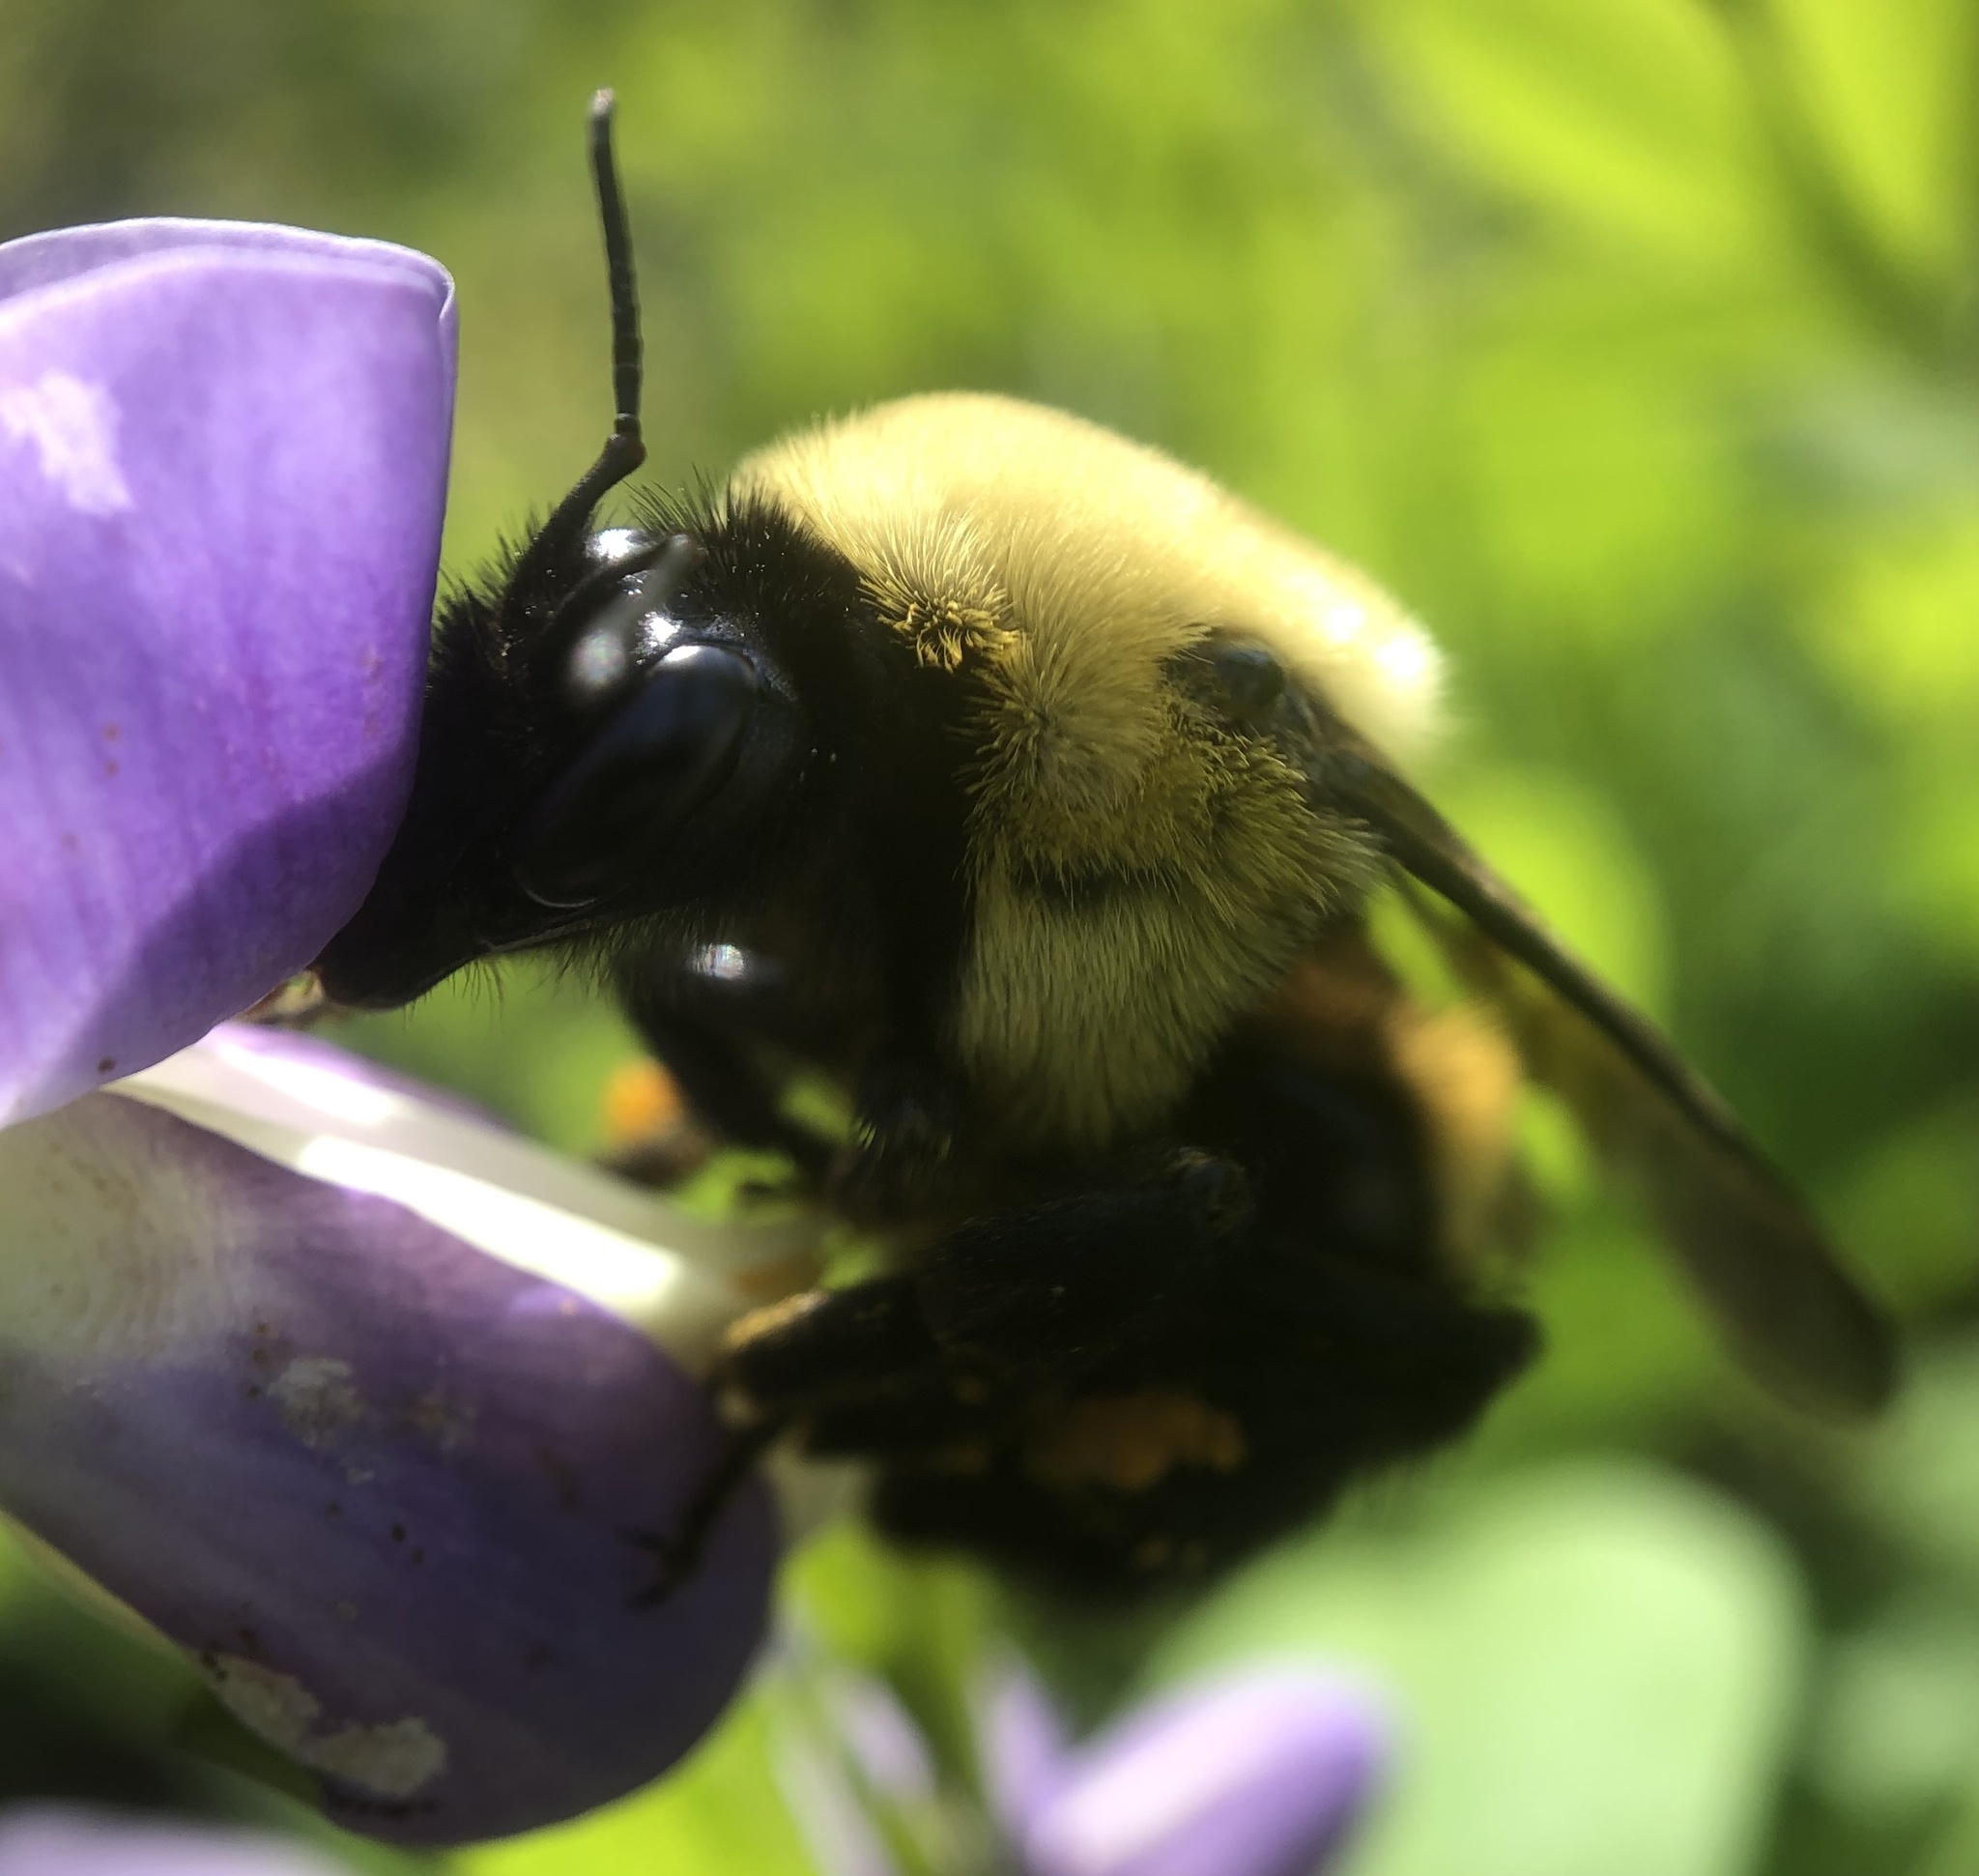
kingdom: Animalia
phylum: Arthropoda
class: Insecta
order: Hymenoptera
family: Apidae
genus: Bombus
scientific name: Bombus griseocollis
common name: Brown-belted bumble bee
